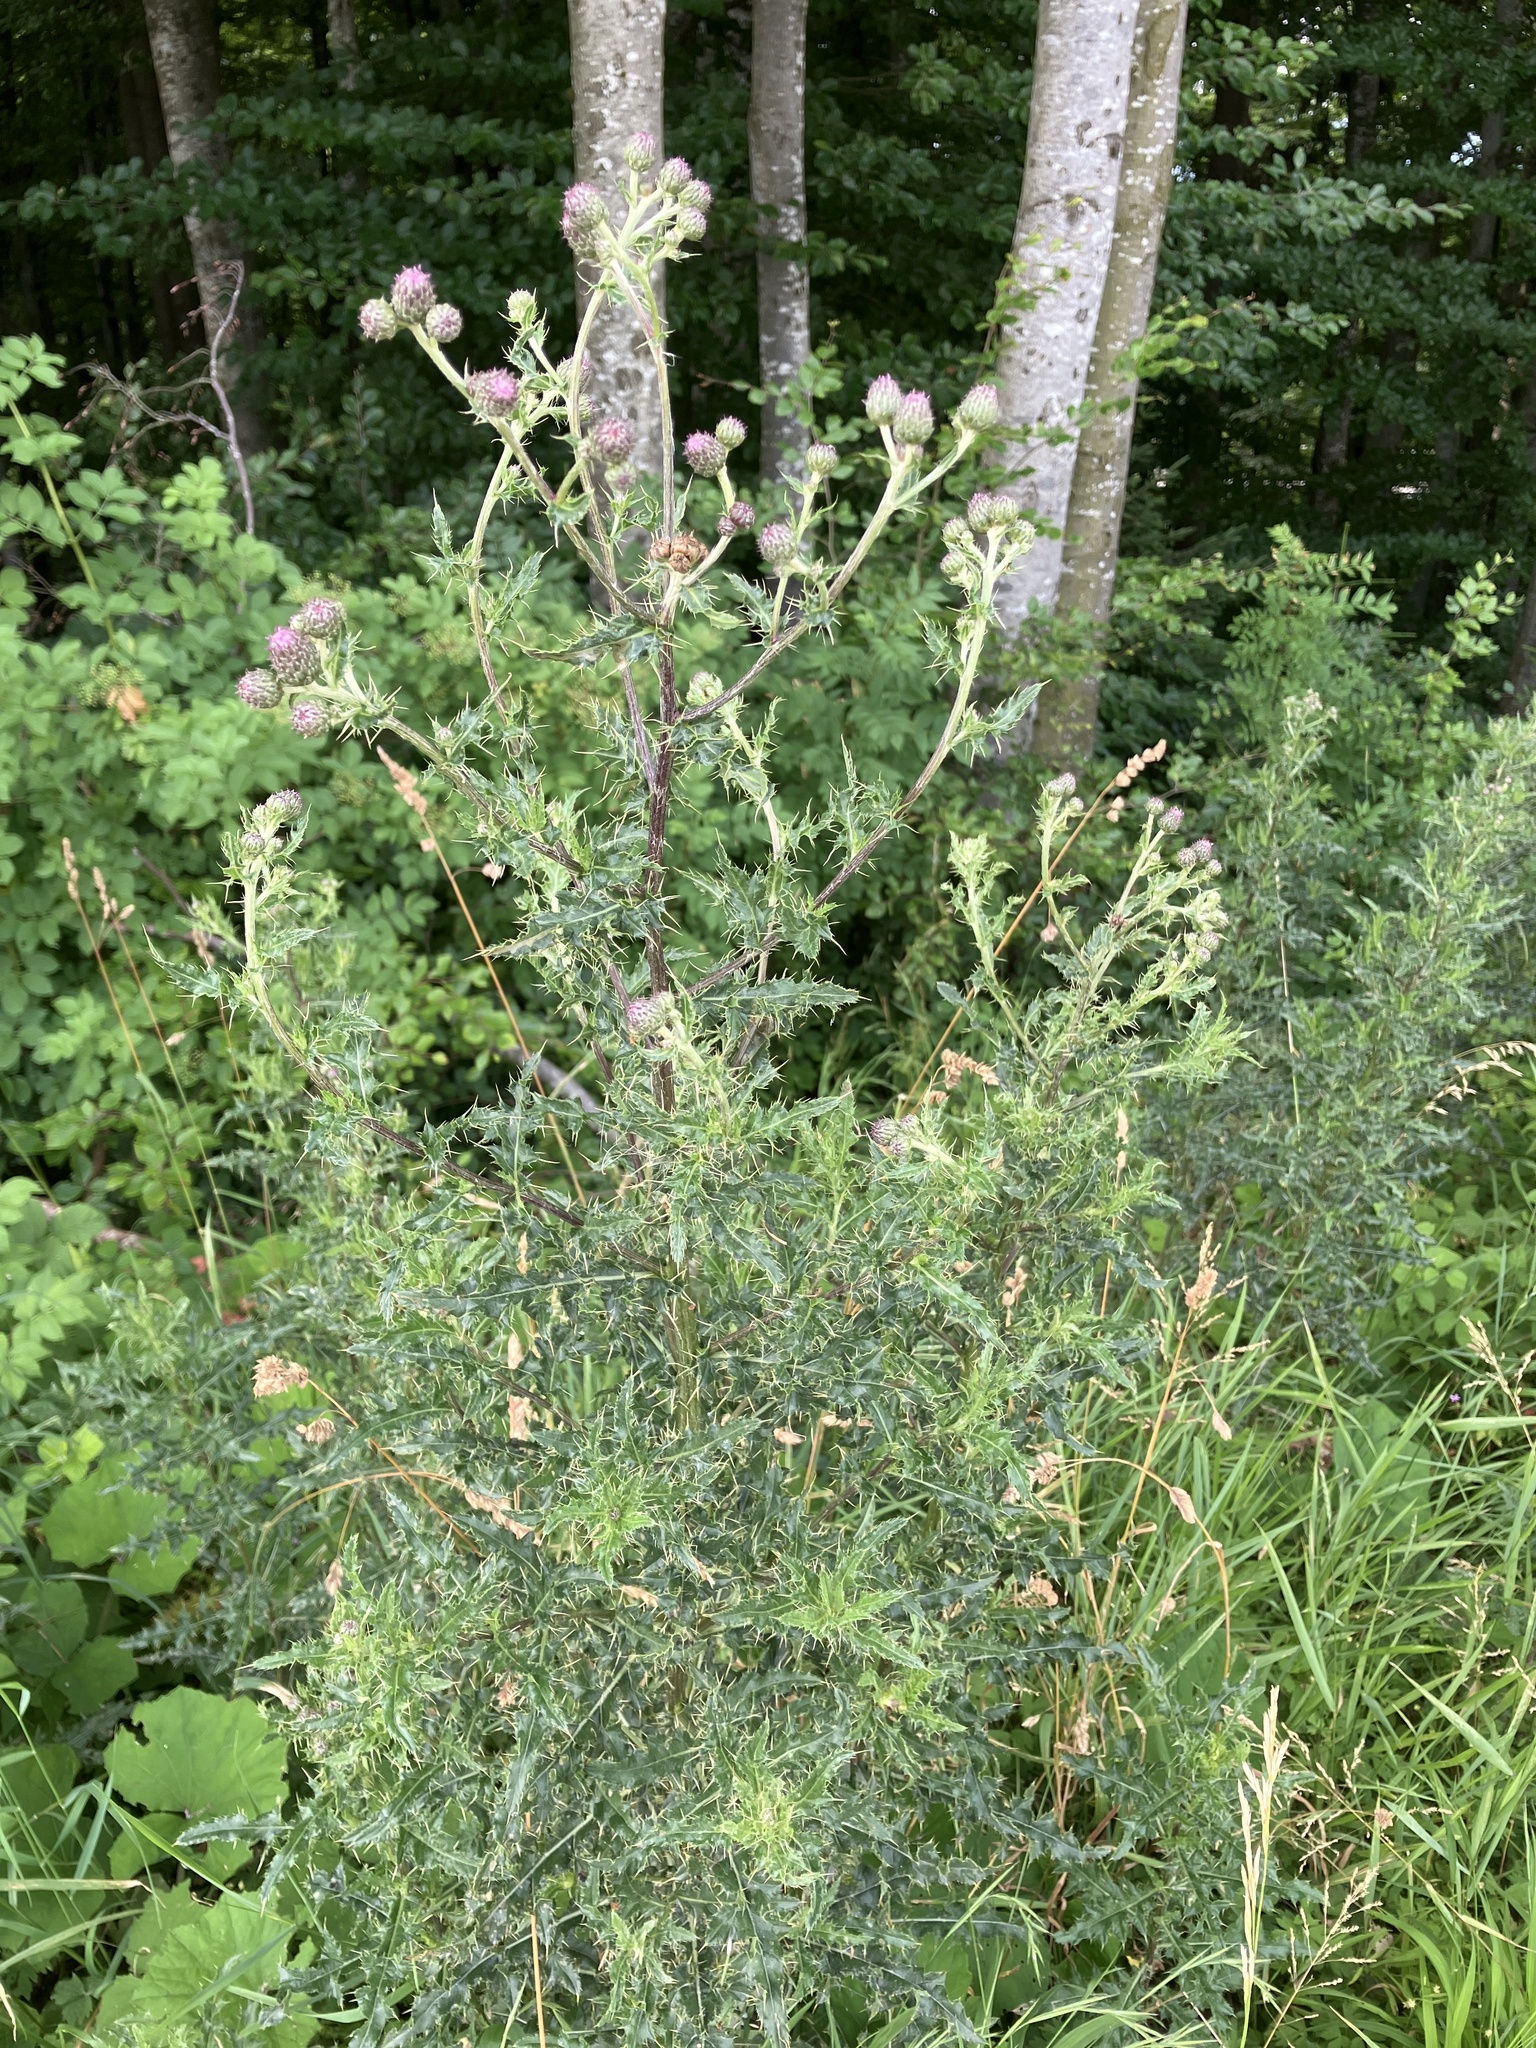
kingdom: Plantae
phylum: Tracheophyta
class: Magnoliopsida
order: Asterales
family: Asteraceae
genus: Cirsium
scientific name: Cirsium arvense
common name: Creeping thistle
